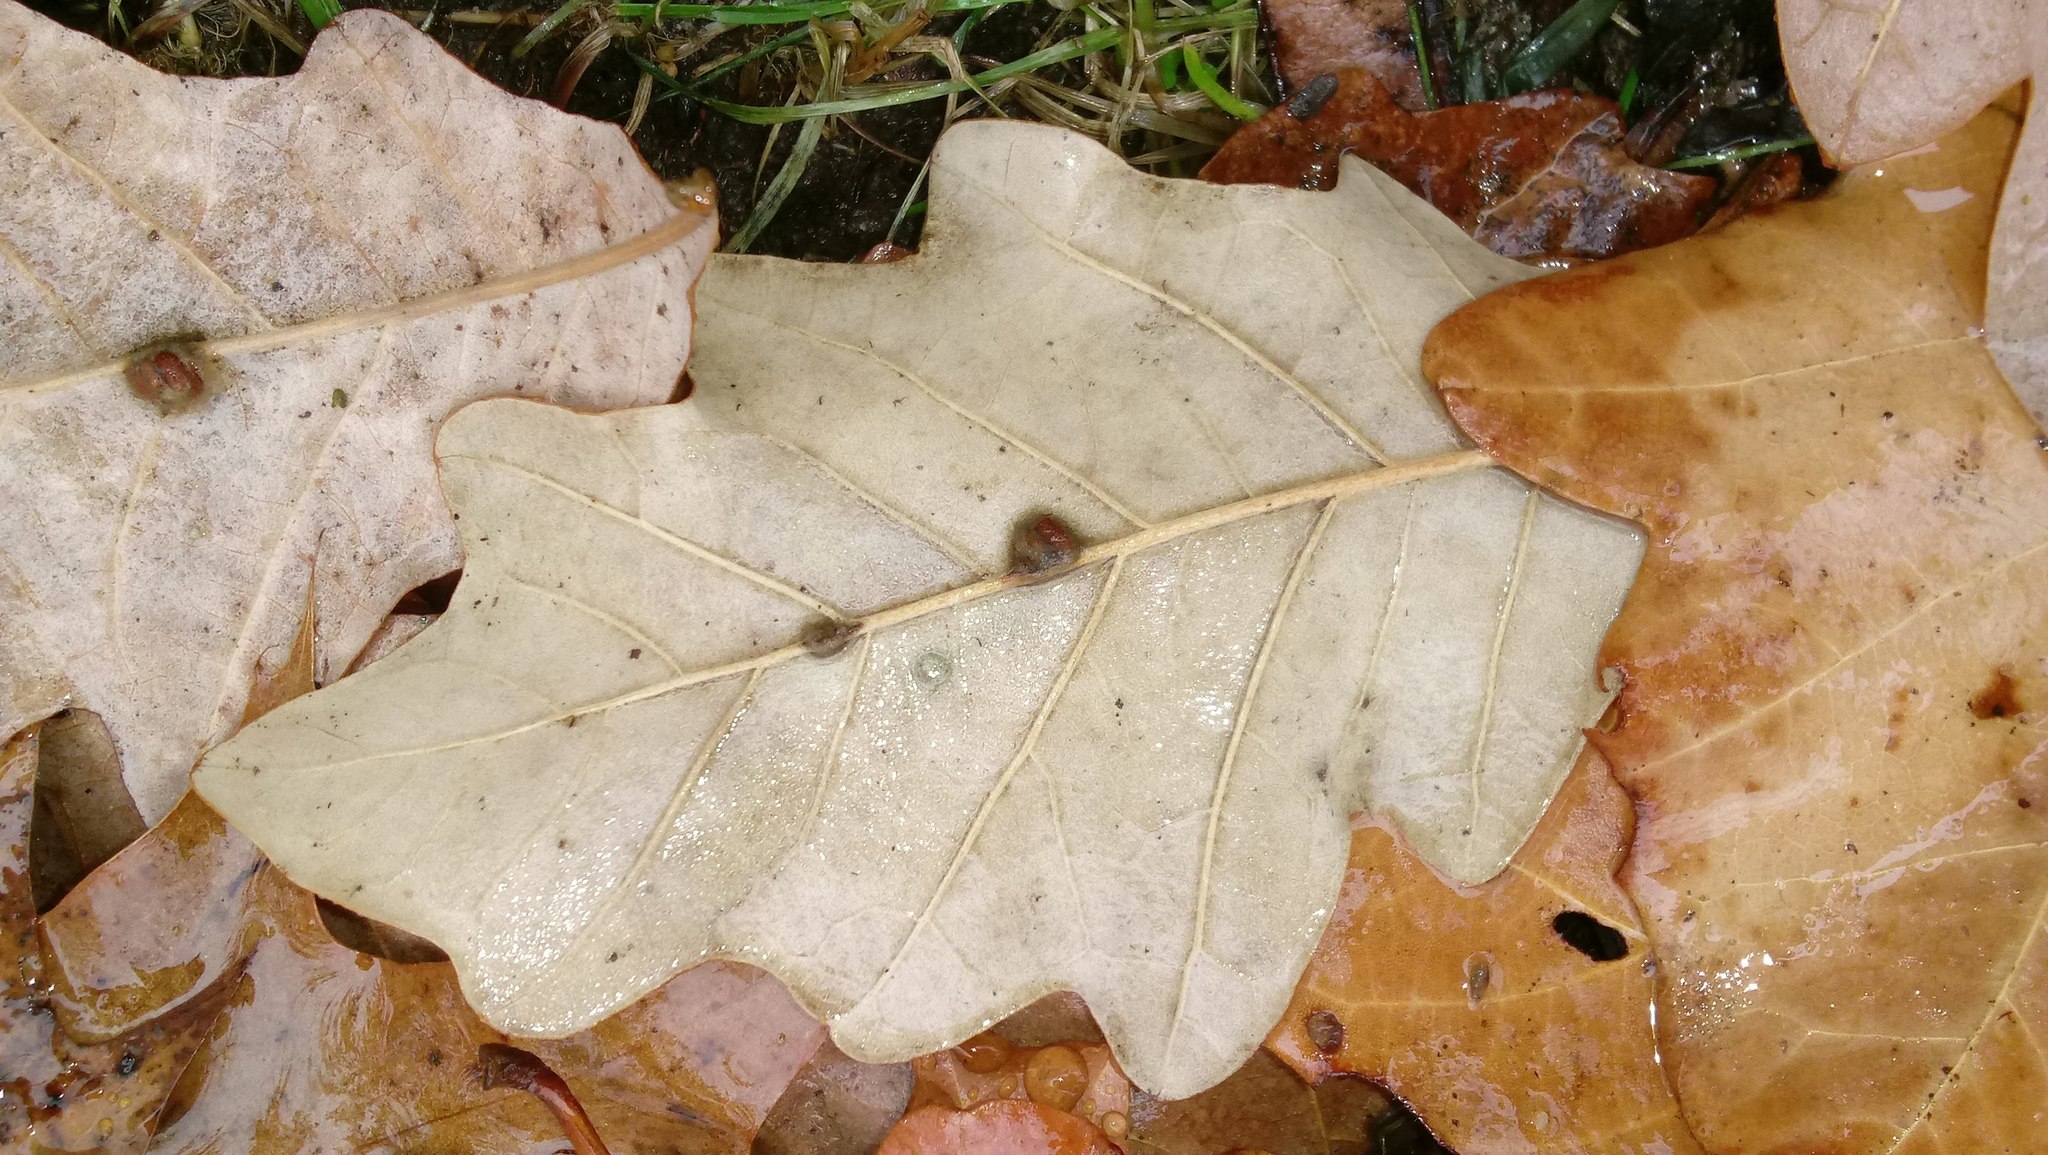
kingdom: Animalia
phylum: Arthropoda
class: Insecta
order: Hymenoptera
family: Cynipidae
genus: Andricus
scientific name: Andricus Druon ignotum
